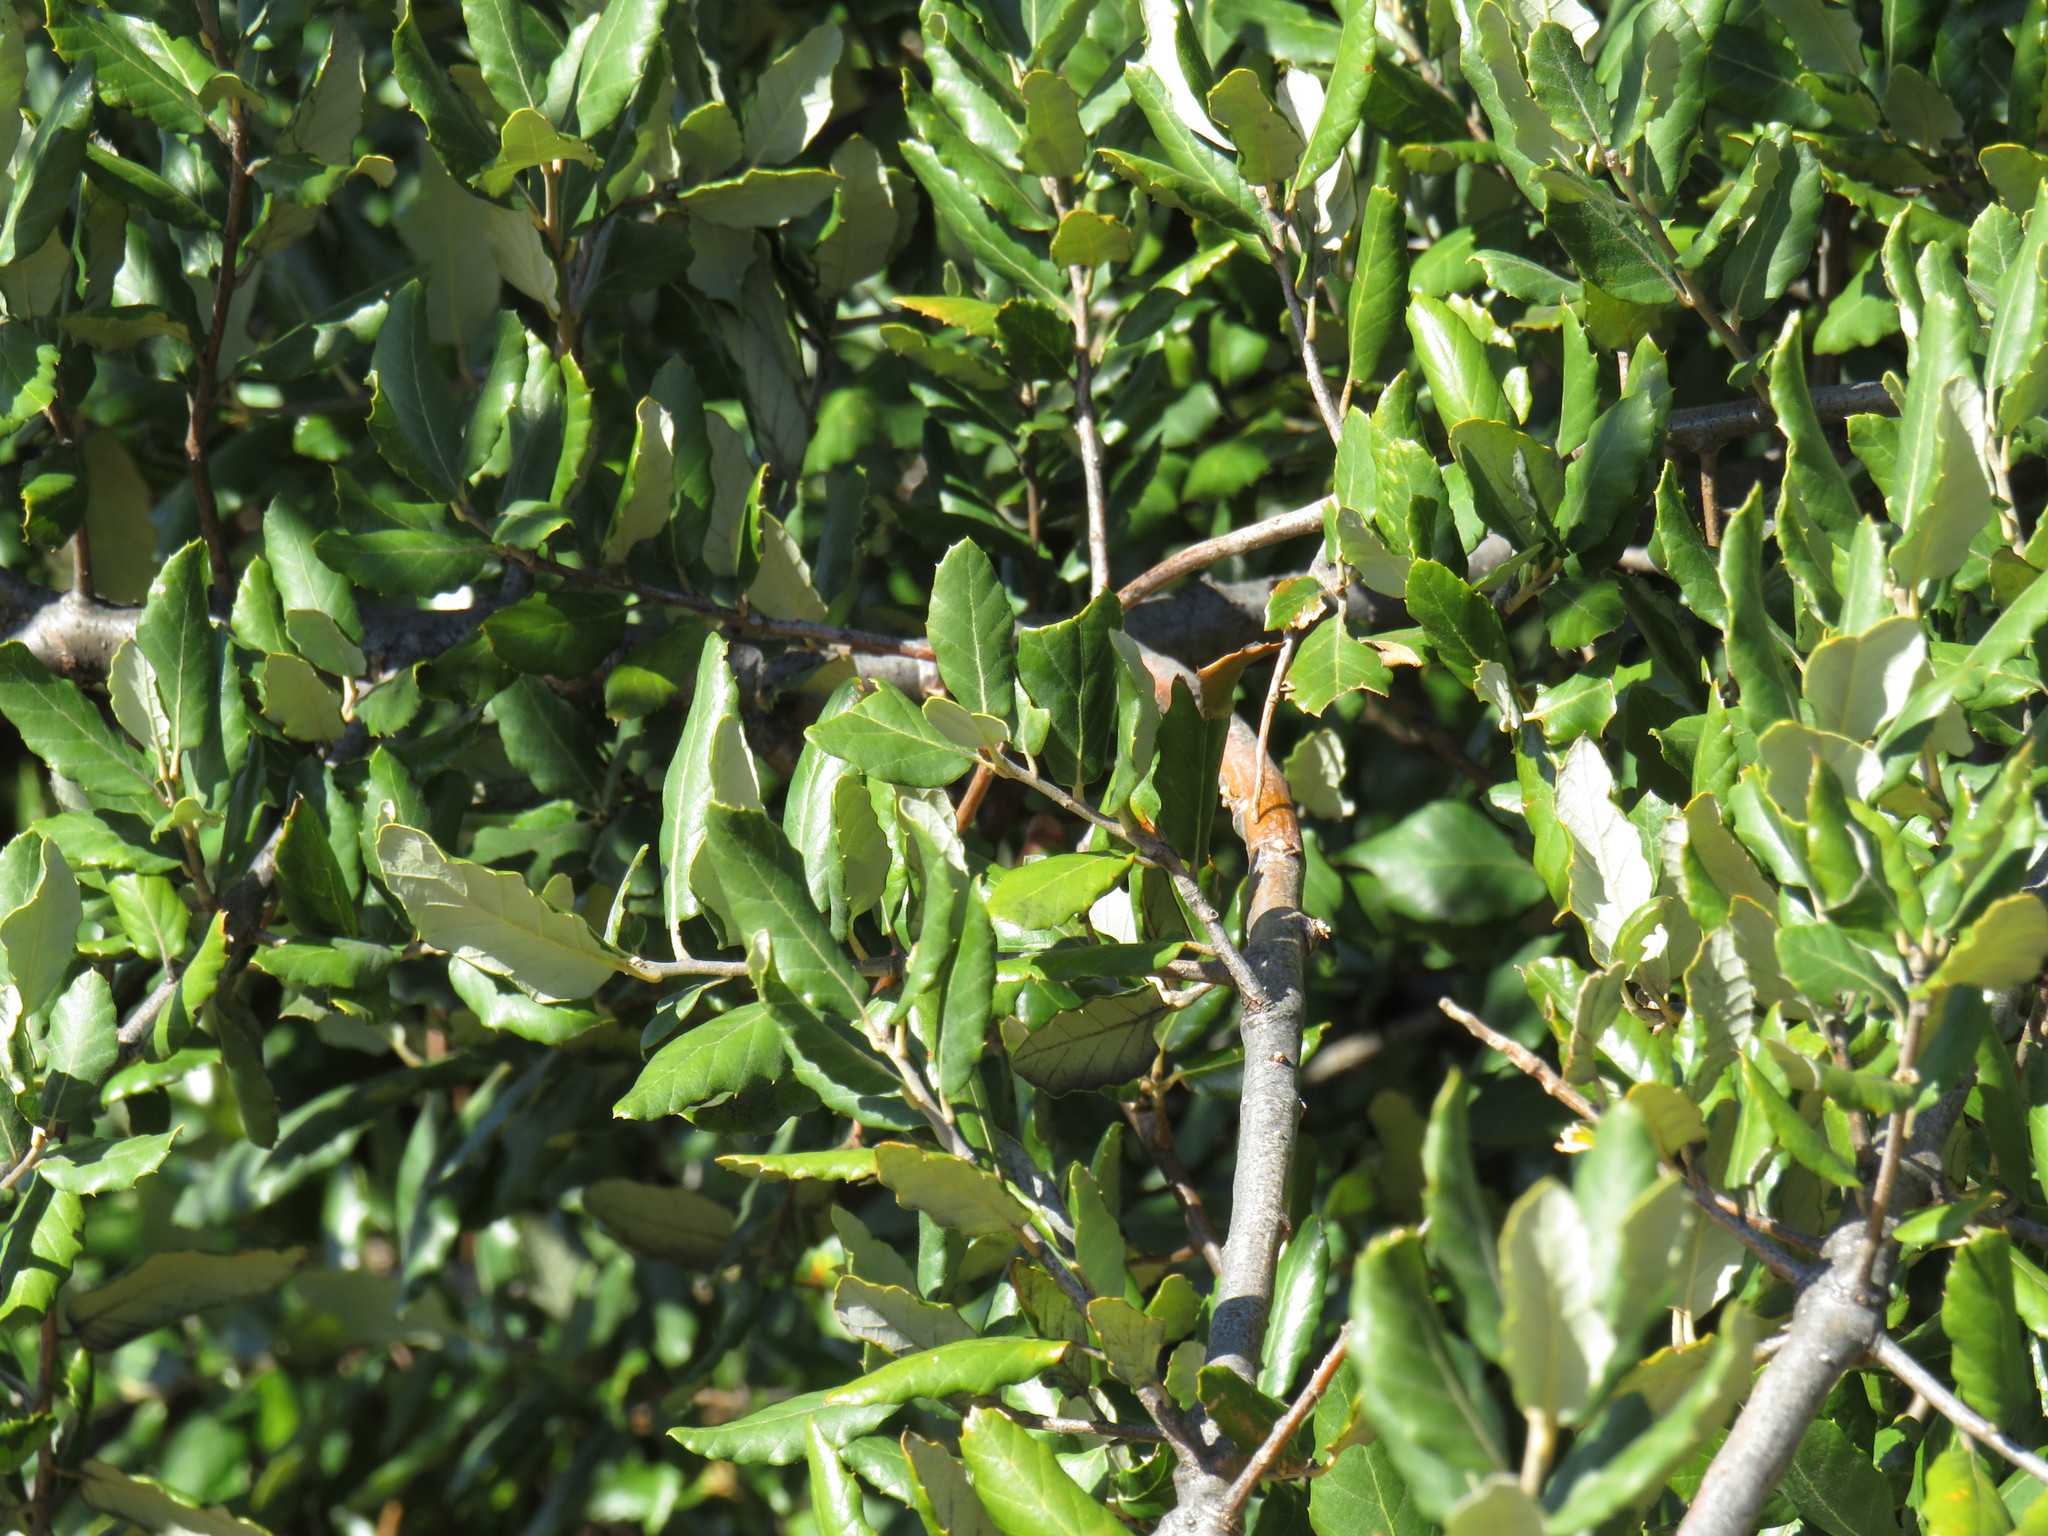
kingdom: Plantae
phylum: Tracheophyta
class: Magnoliopsida
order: Fagales
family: Fagaceae
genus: Quercus
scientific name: Quercus suber
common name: Cork oak
